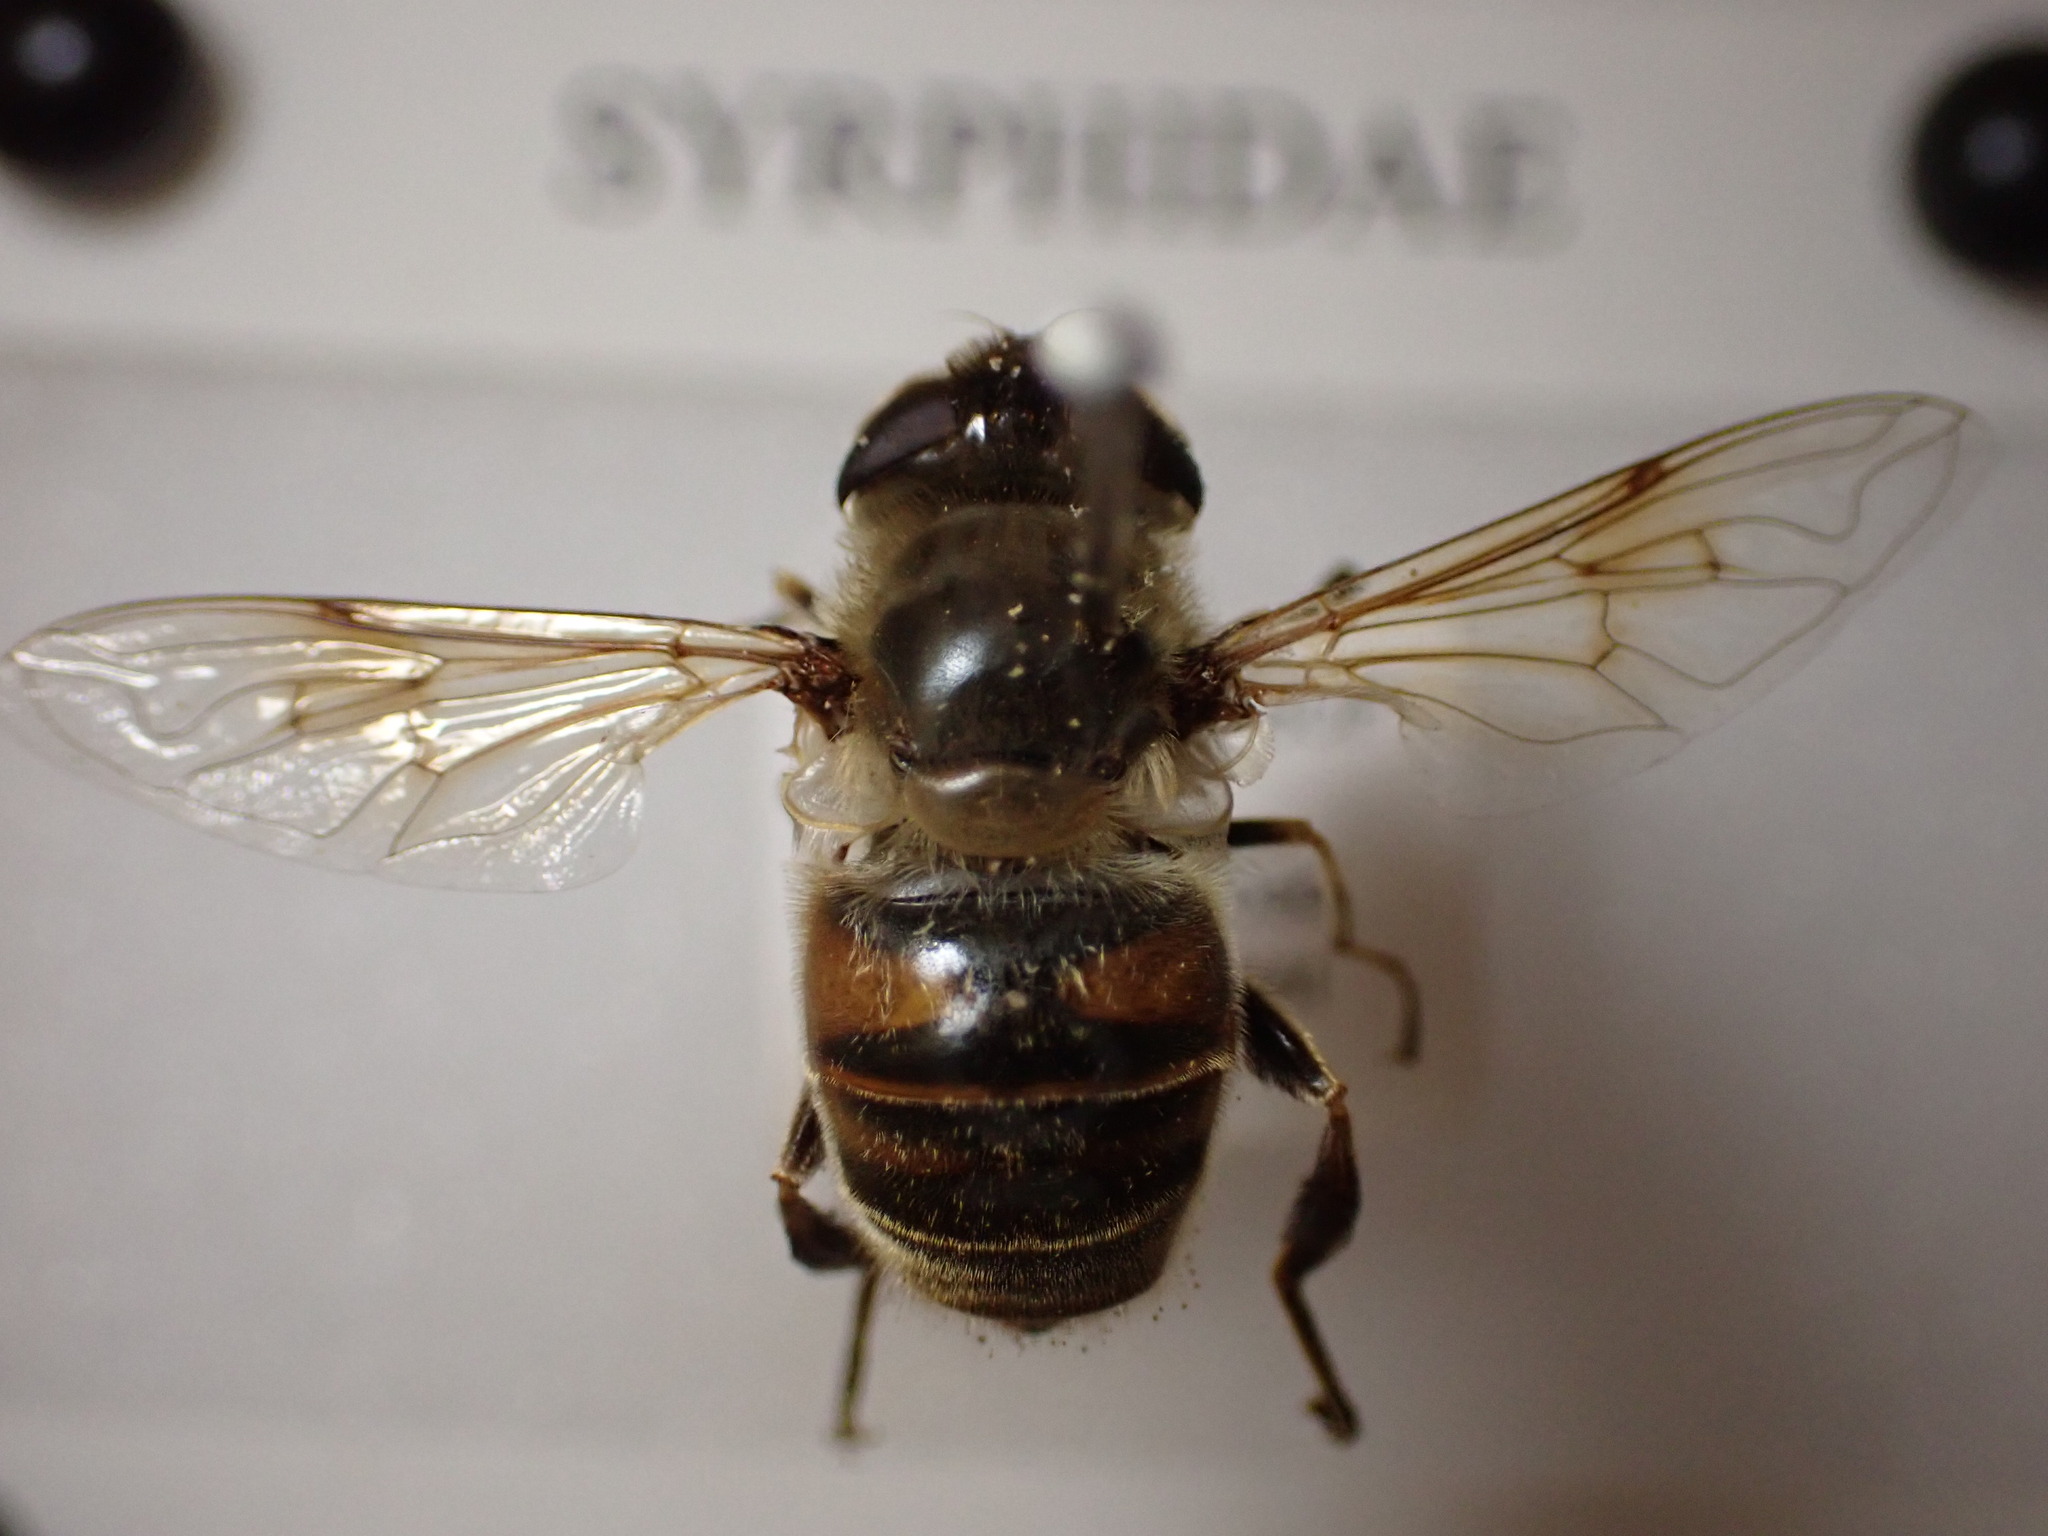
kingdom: Animalia
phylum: Arthropoda
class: Insecta
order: Diptera
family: Syrphidae
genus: Eristalis
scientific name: Eristalis tenax
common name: Drone fly
